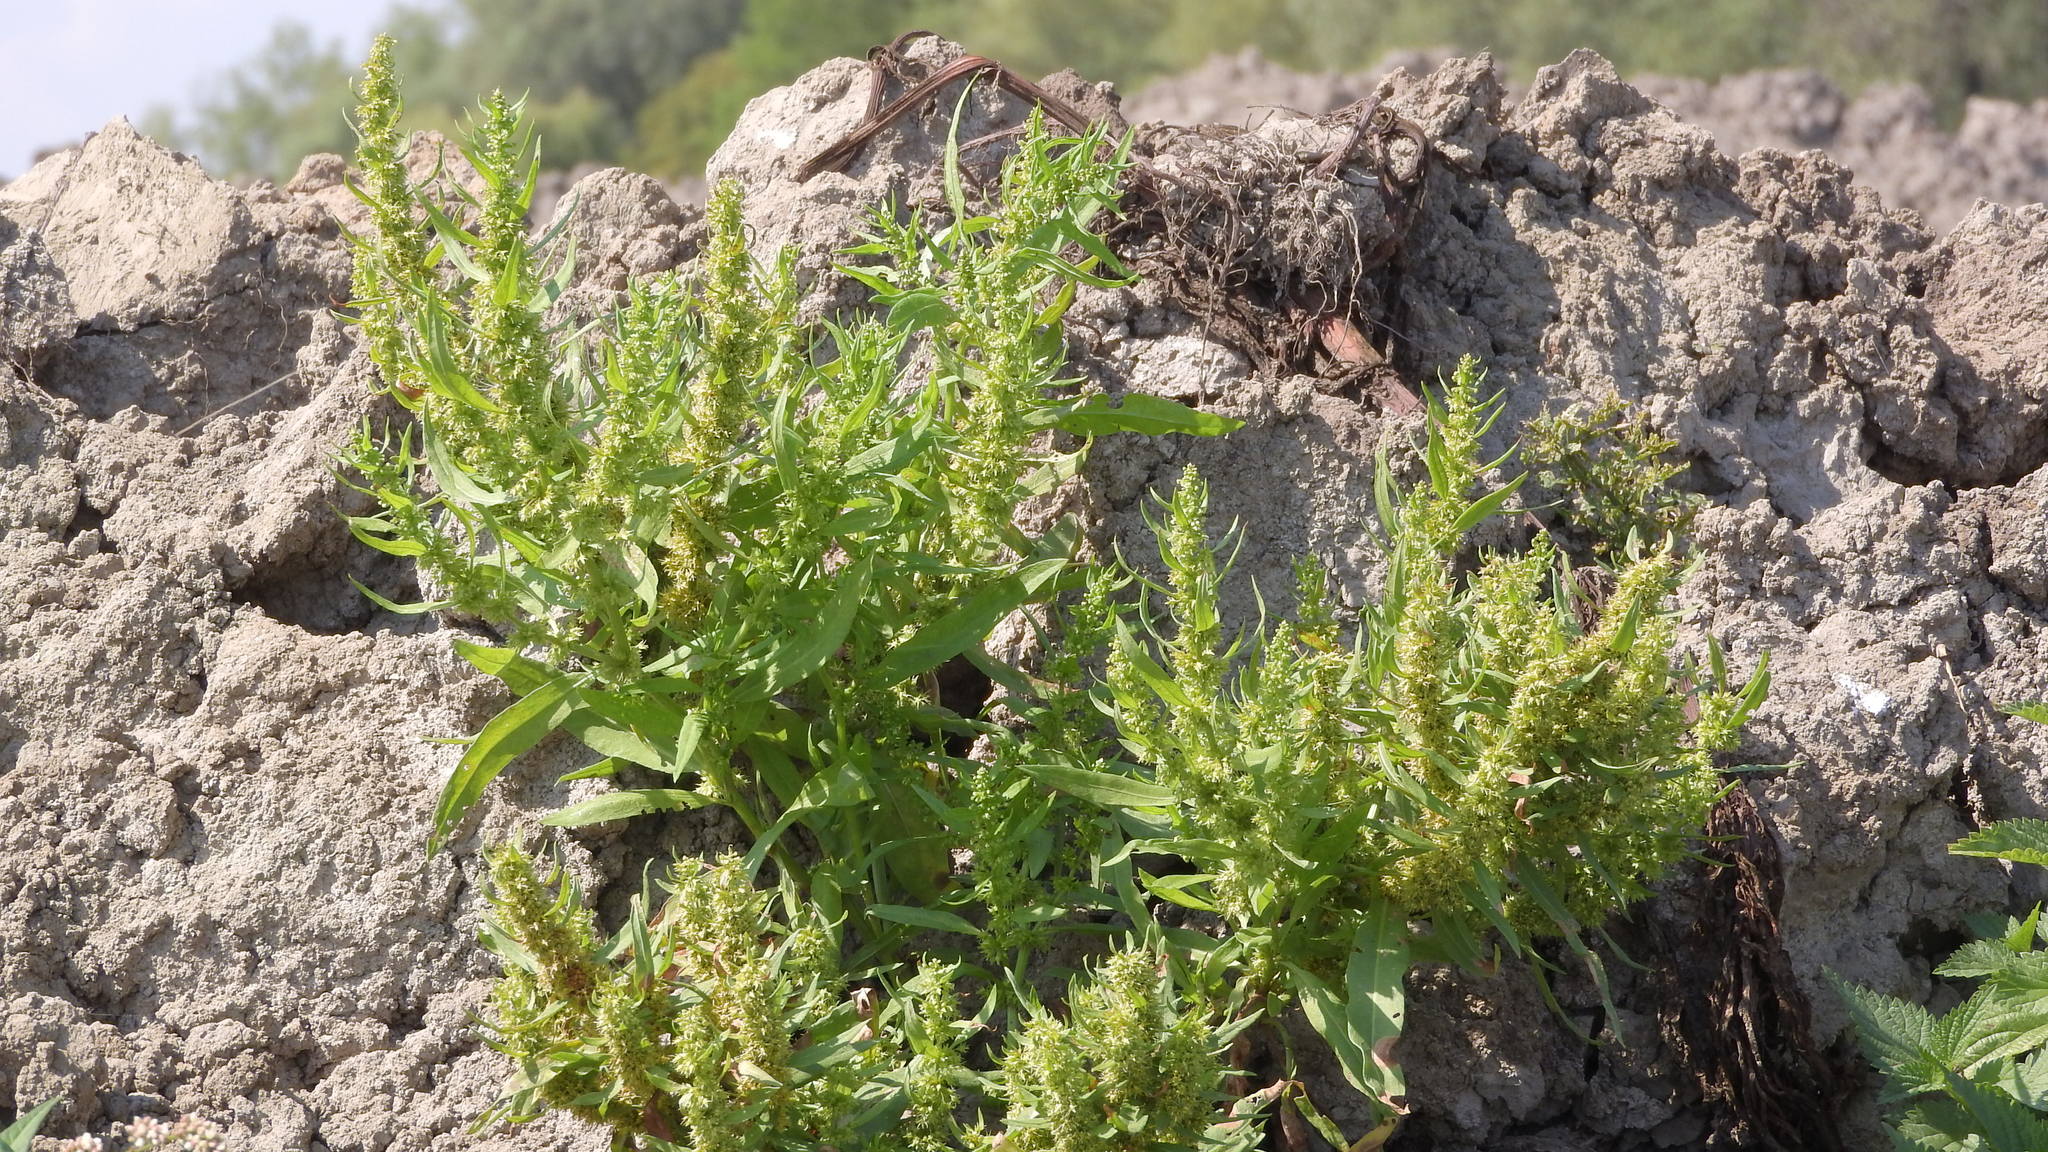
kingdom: Plantae
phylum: Tracheophyta
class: Magnoliopsida
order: Caryophyllales
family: Polygonaceae
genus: Rumex
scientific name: Rumex maritimus
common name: Golden dock
